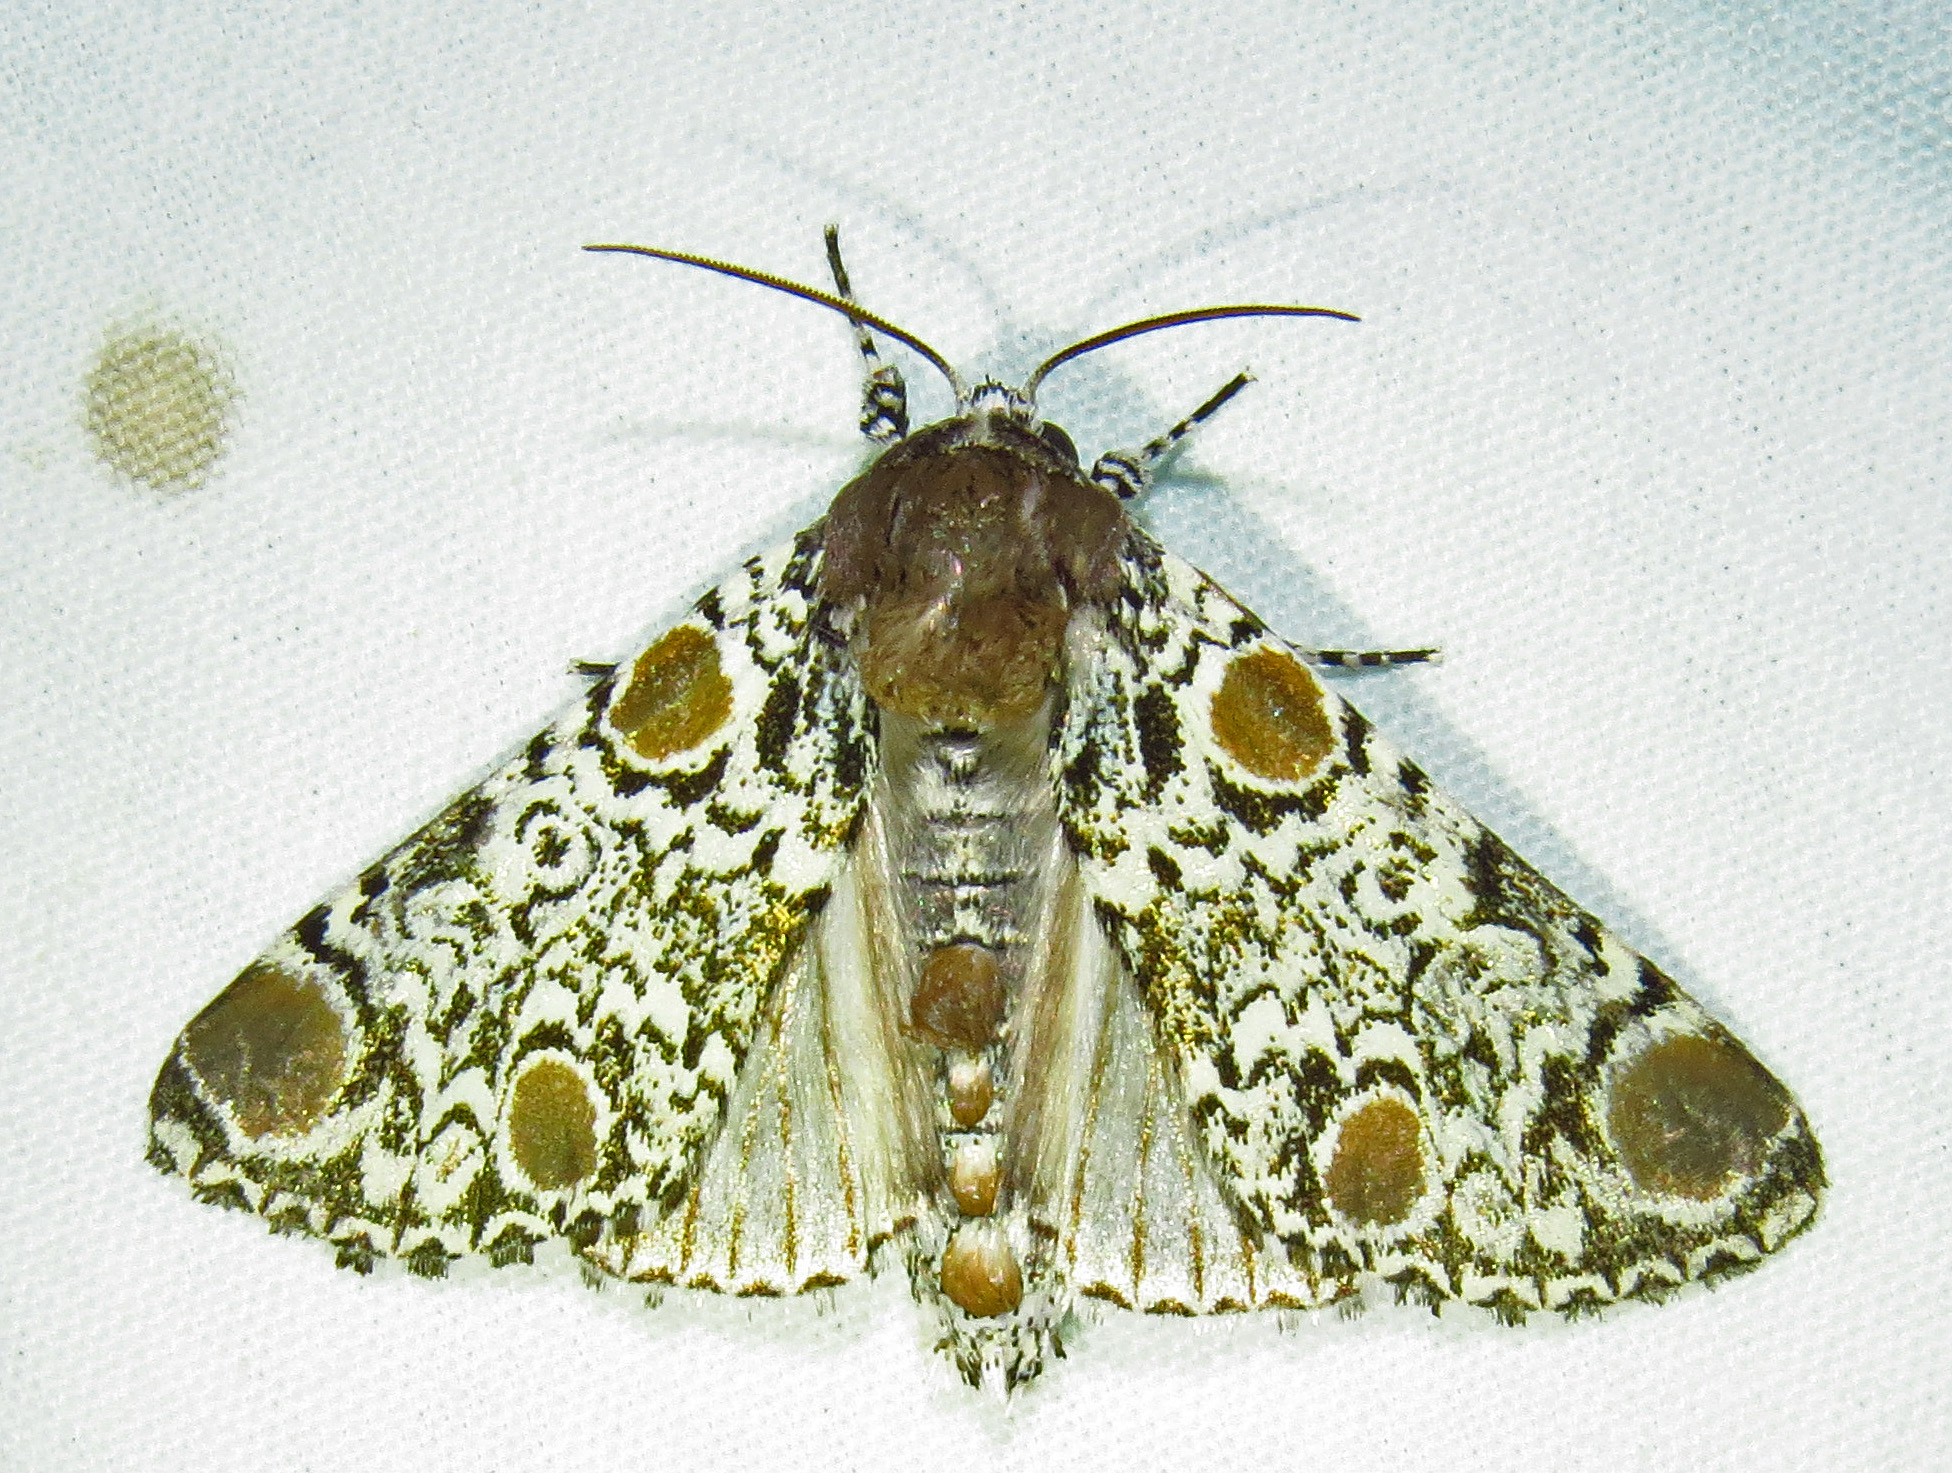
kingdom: Animalia
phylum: Arthropoda
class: Insecta
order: Lepidoptera
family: Noctuidae
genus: Harrisimemna
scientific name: Harrisimemna trisignata
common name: Harris threespot
